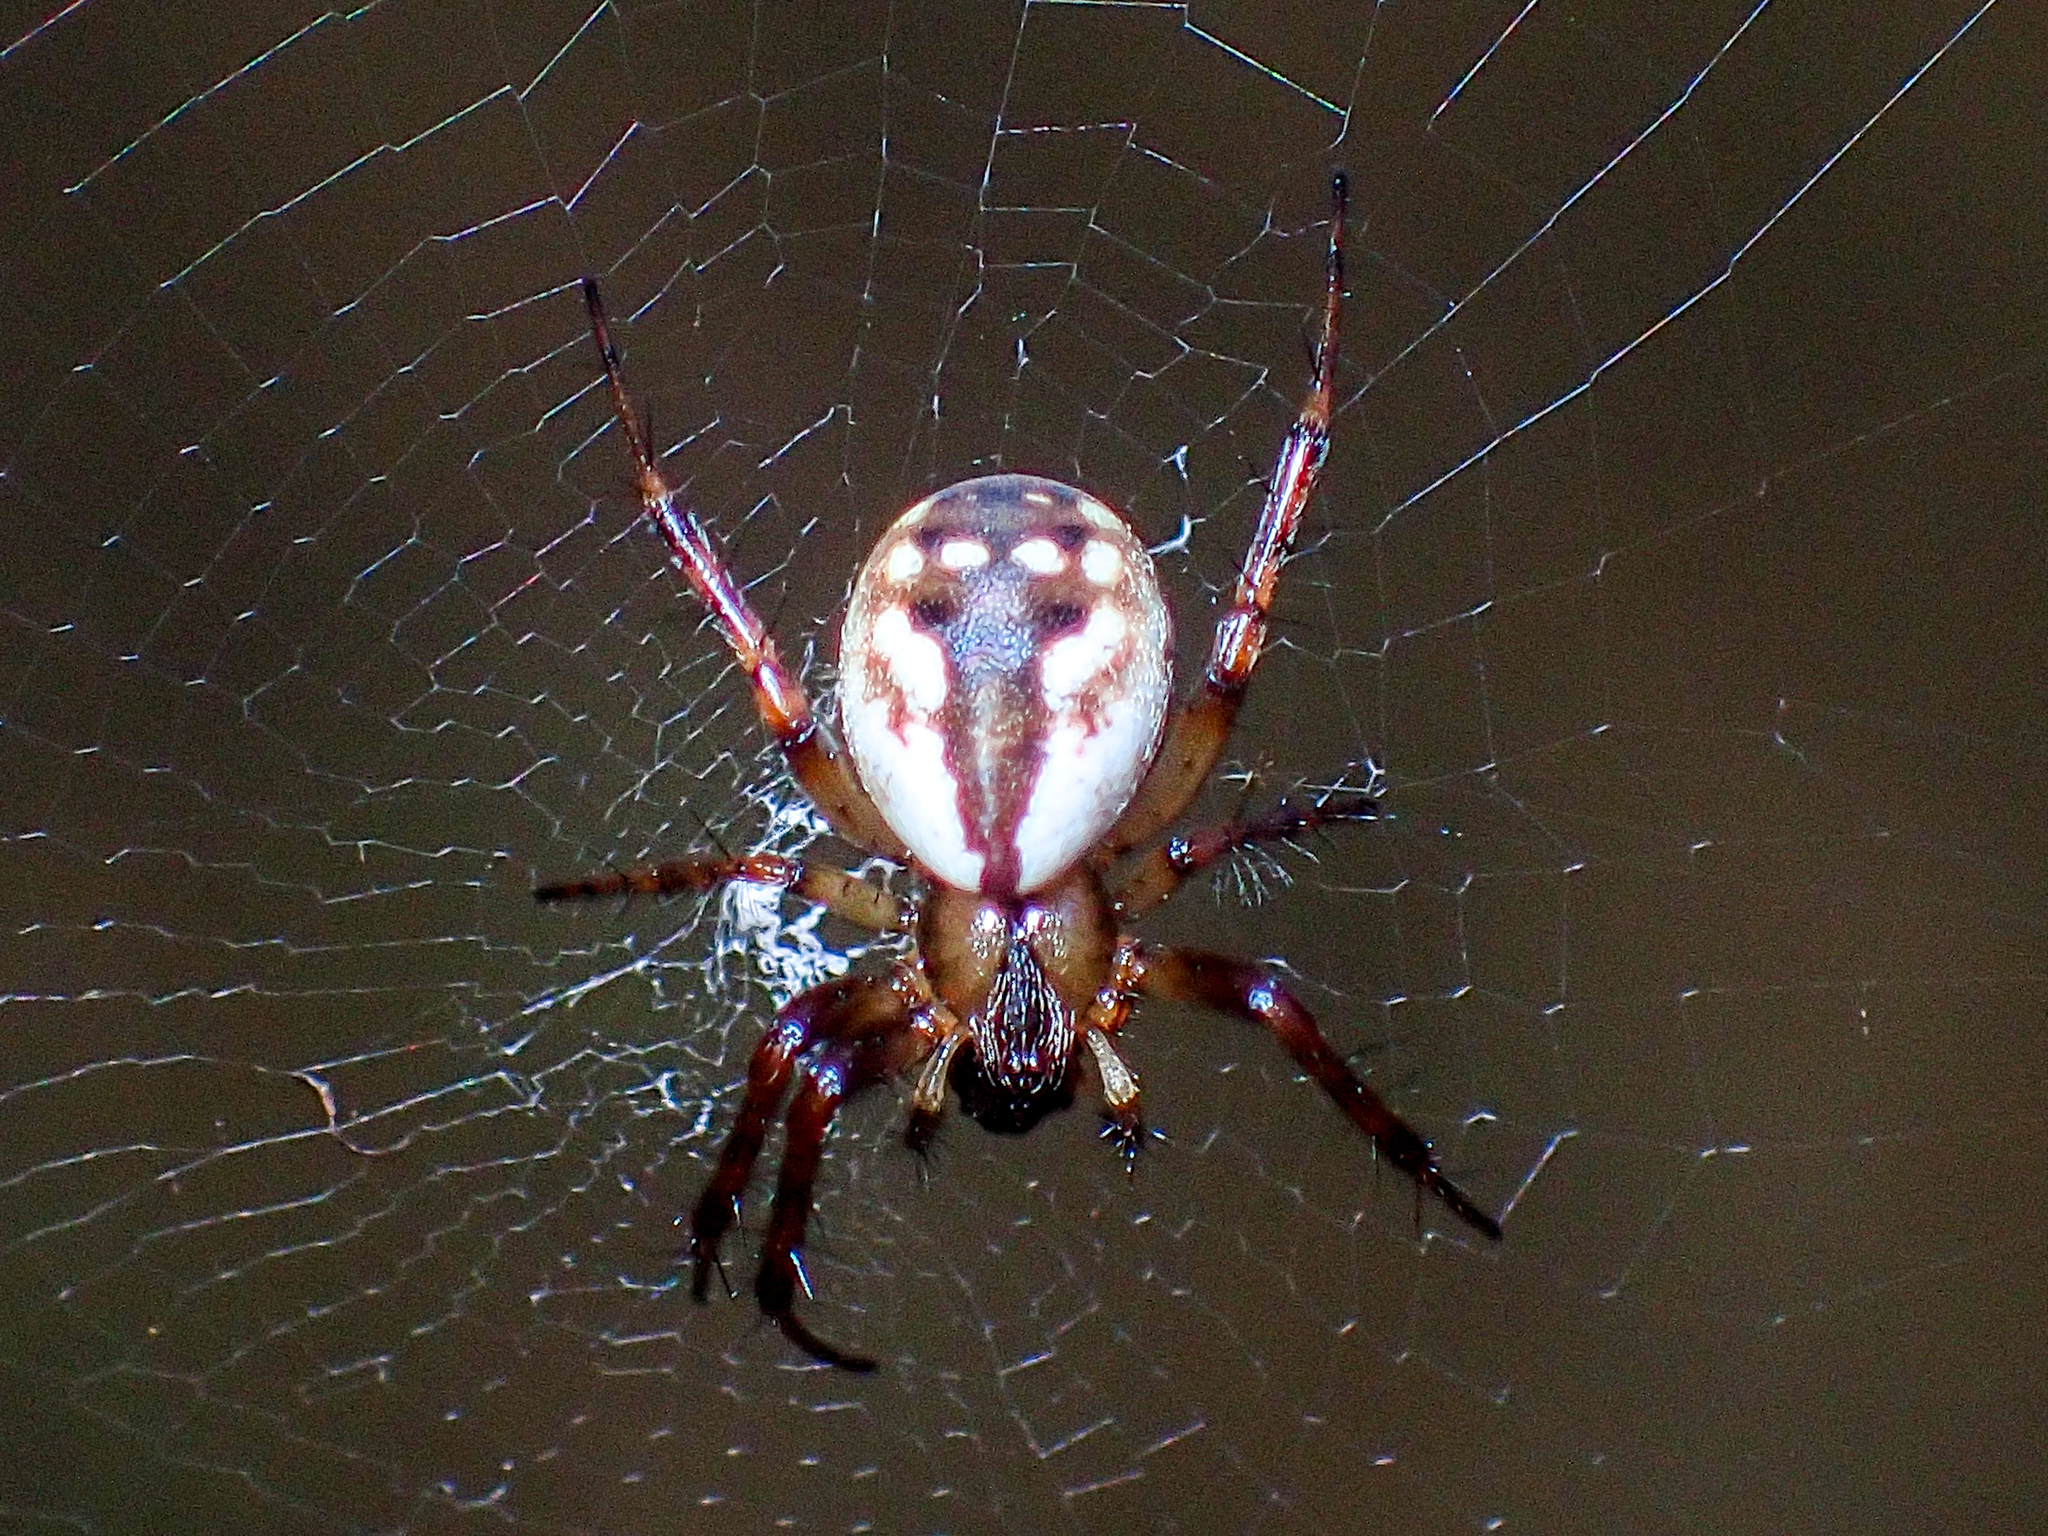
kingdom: Animalia
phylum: Arthropoda
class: Arachnida
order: Araneae
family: Araneidae
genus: Mangora
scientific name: Mangora placida
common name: Tuft-legged orbweaver
